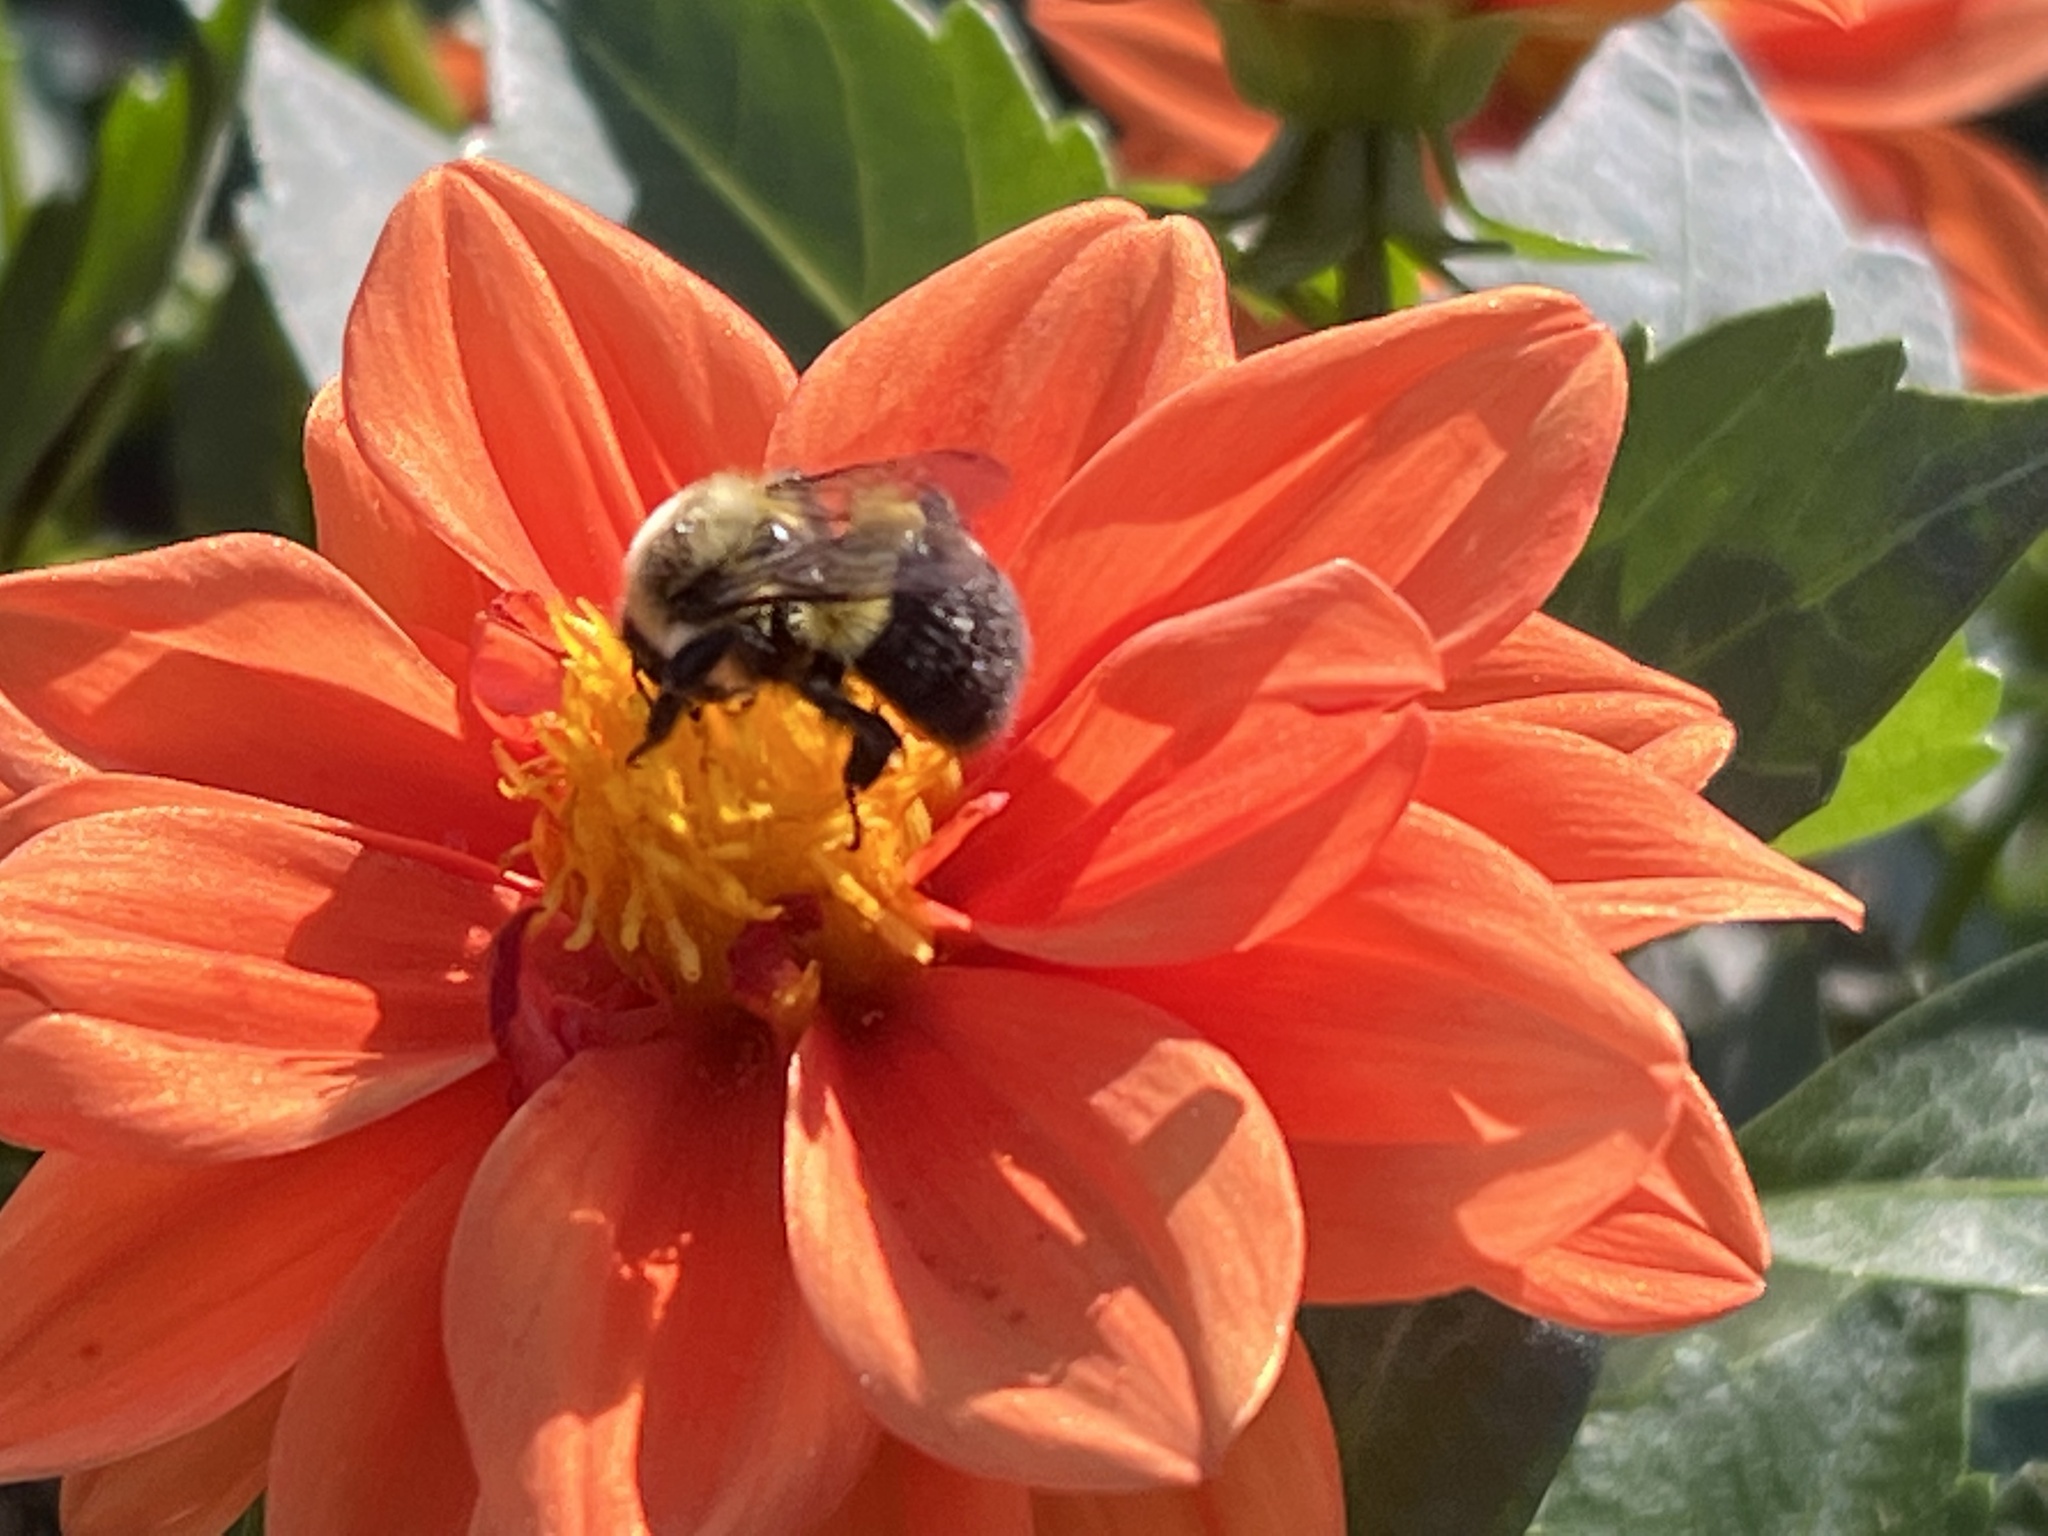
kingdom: Animalia
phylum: Arthropoda
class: Insecta
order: Hymenoptera
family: Apidae
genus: Bombus
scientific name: Bombus impatiens
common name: Common eastern bumble bee
